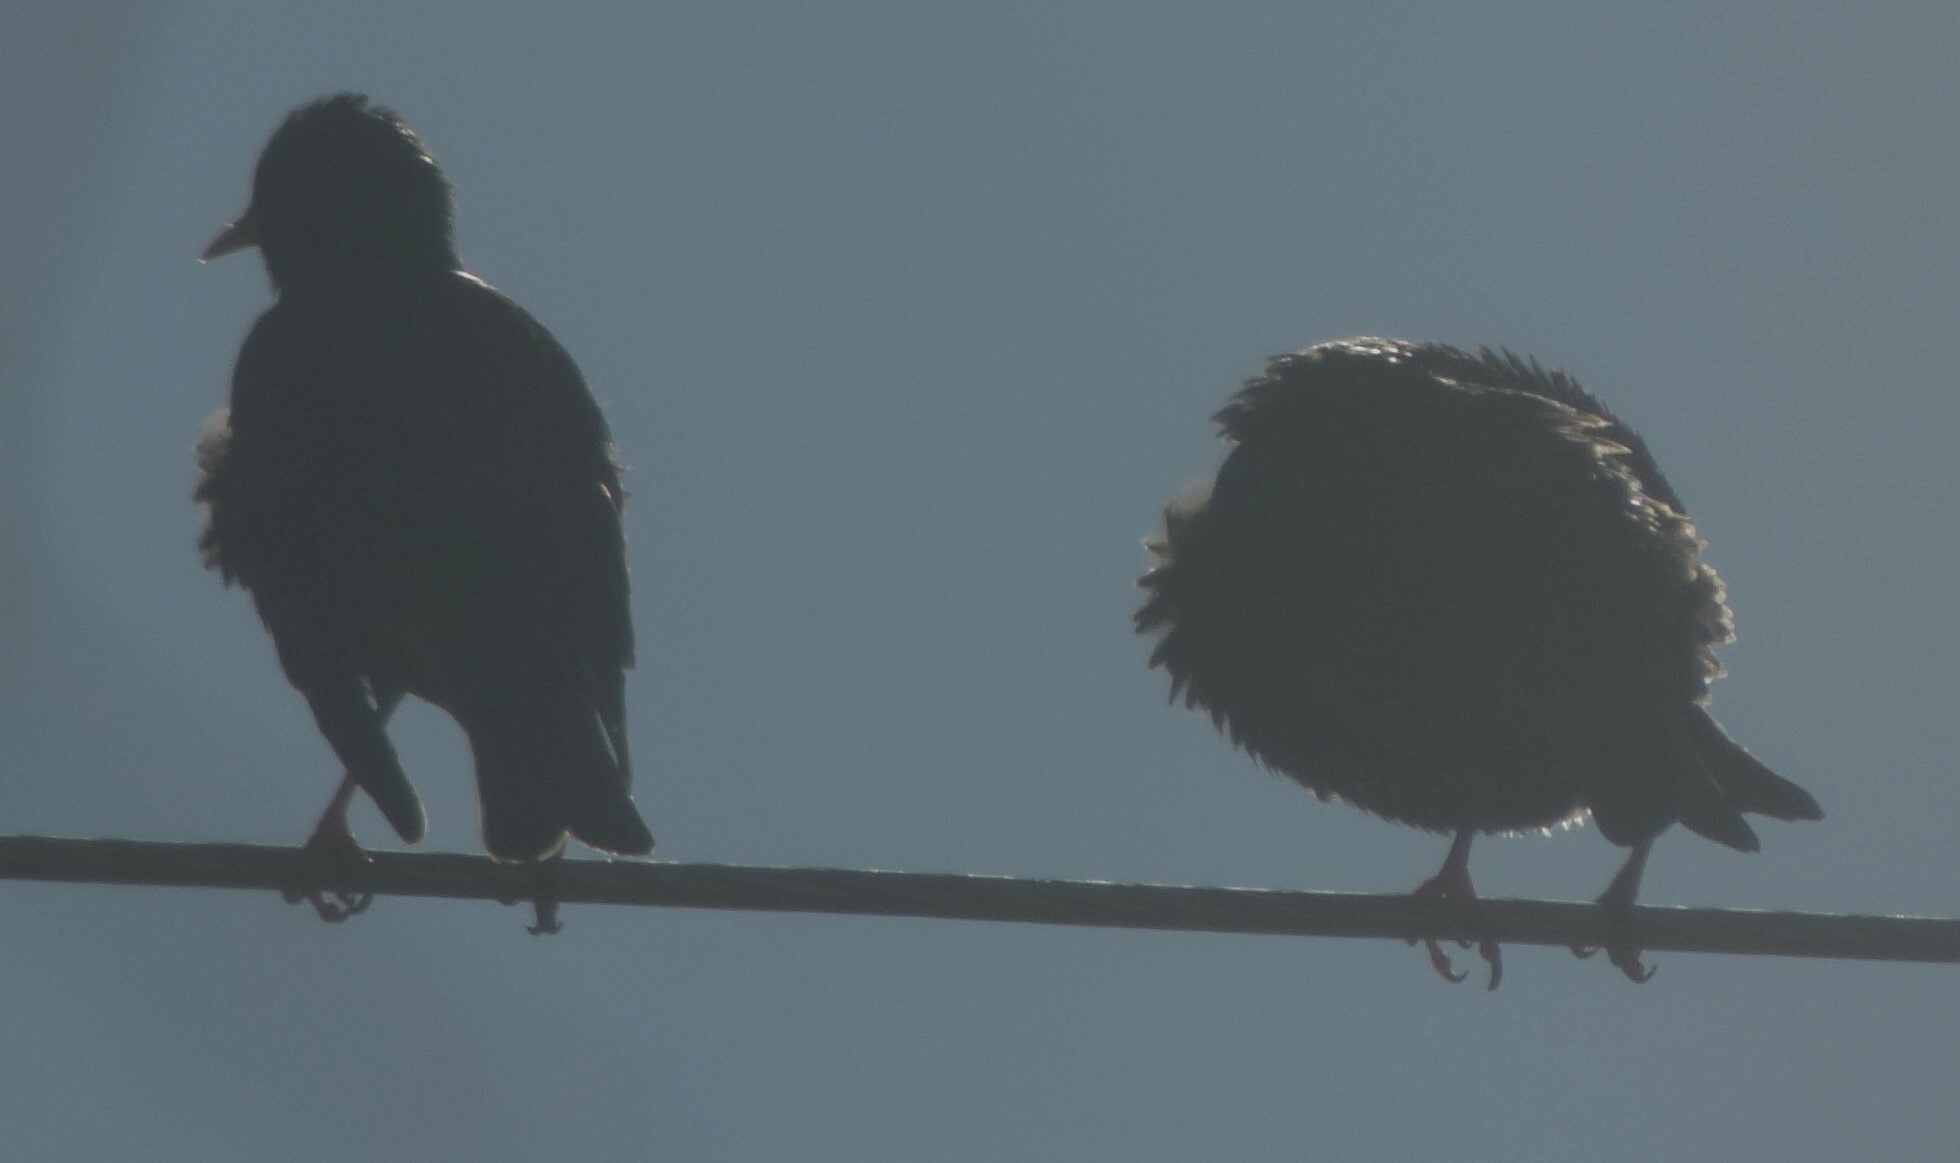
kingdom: Animalia
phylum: Chordata
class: Aves
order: Passeriformes
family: Sturnidae
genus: Sturnus
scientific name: Sturnus vulgaris
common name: Common starling
